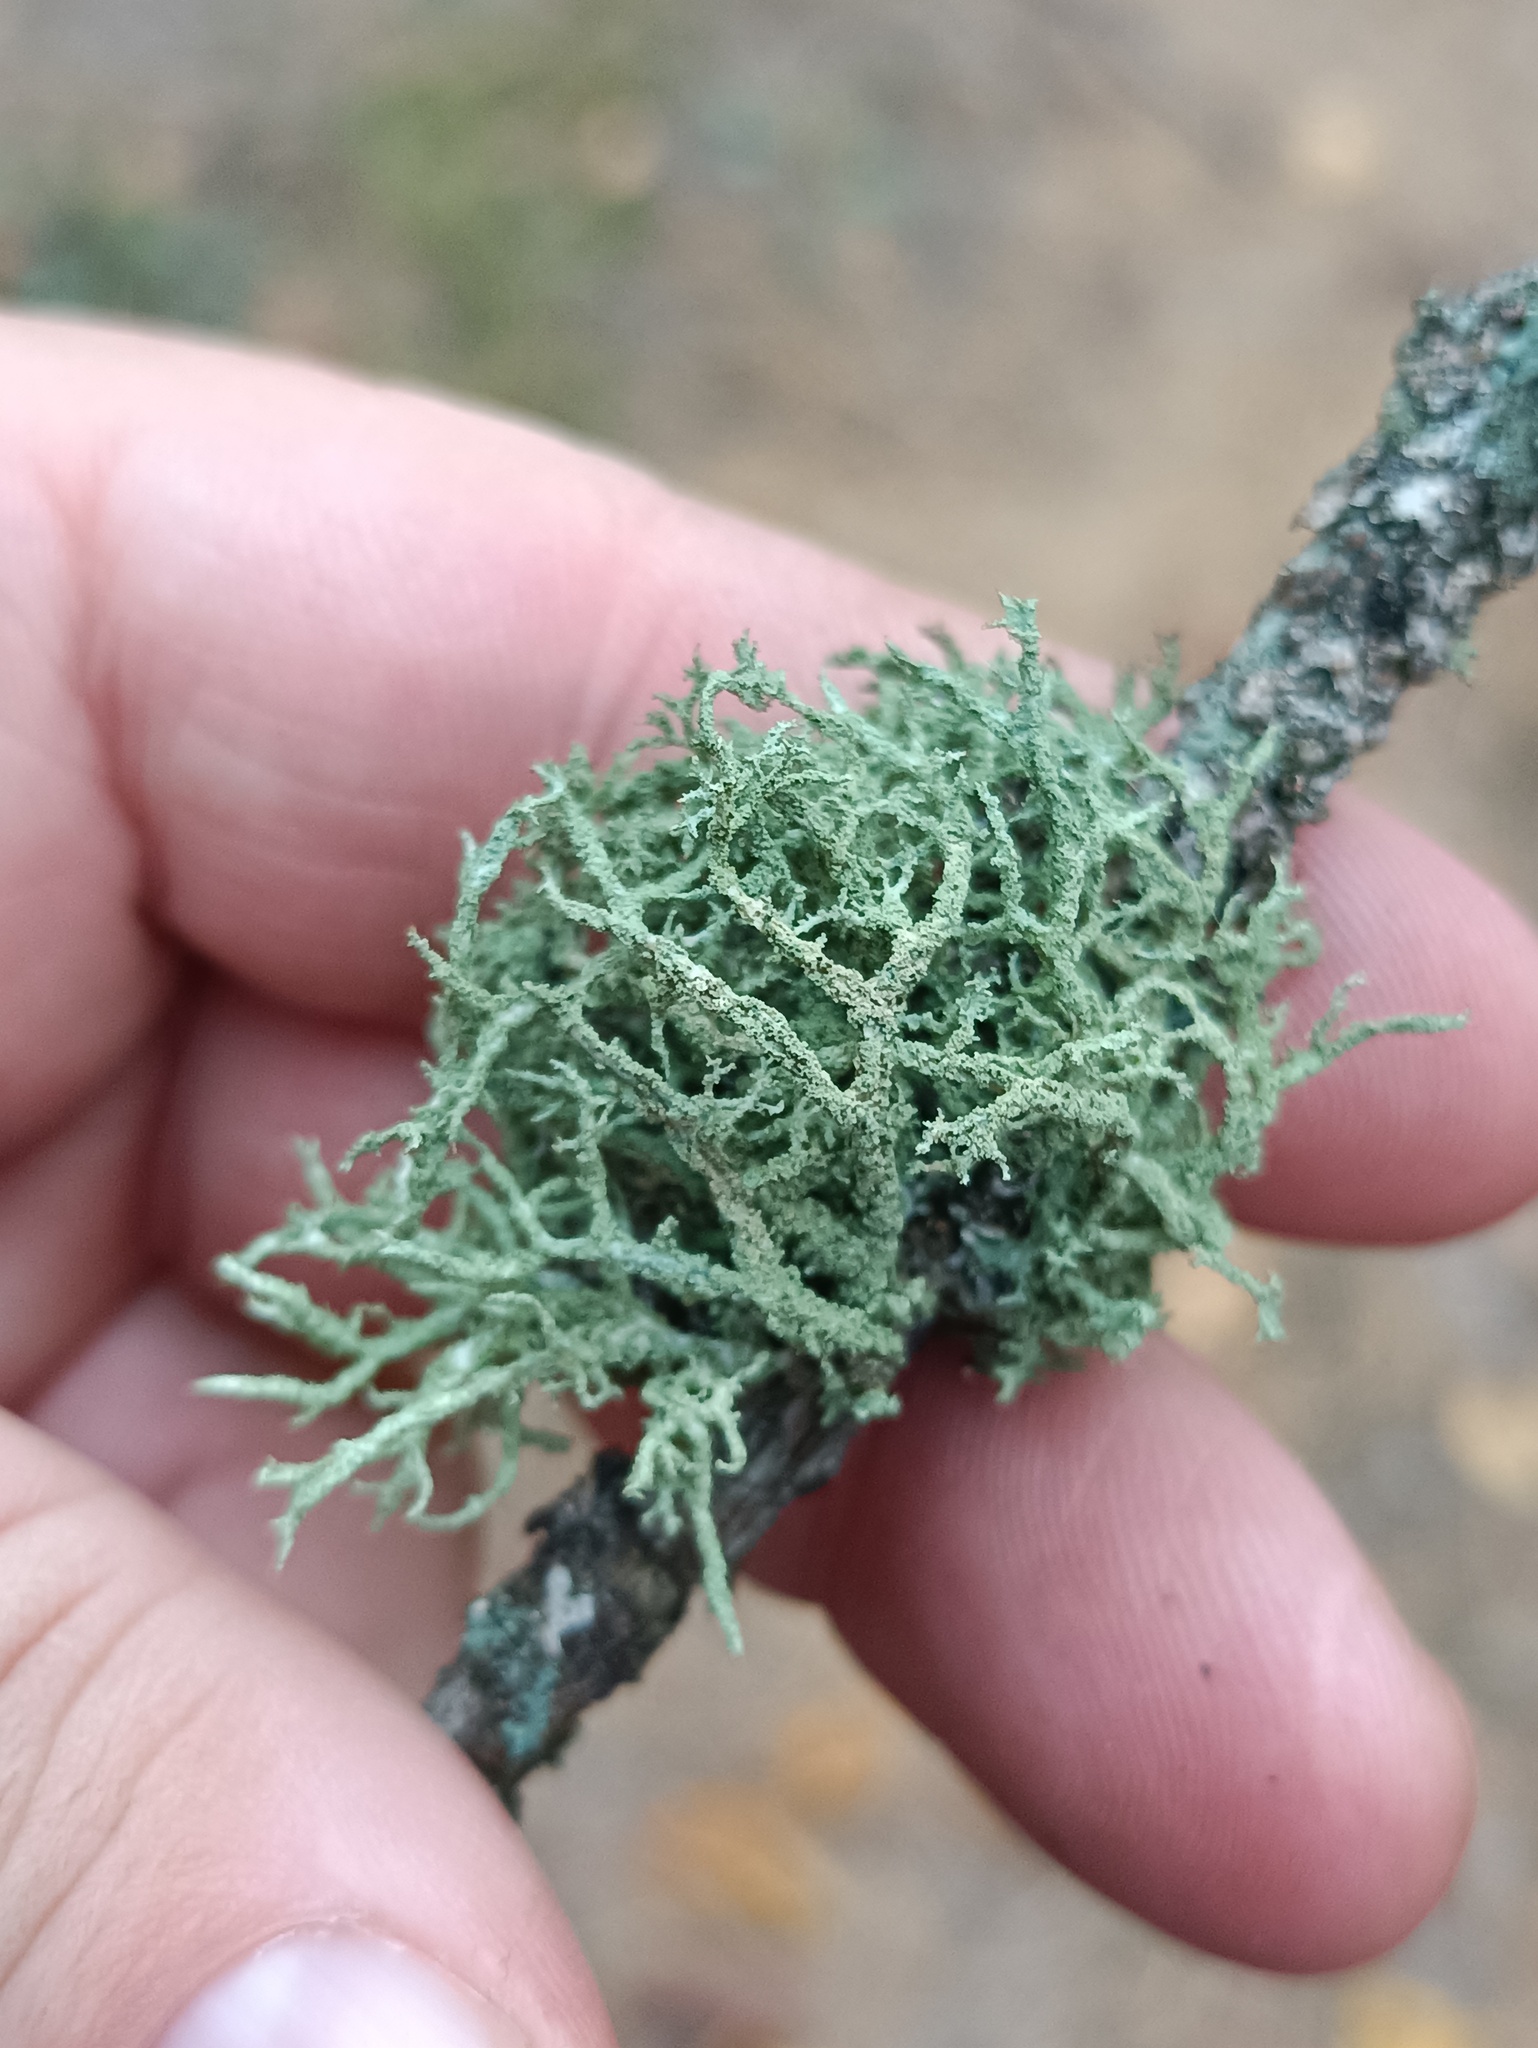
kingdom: Fungi
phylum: Ascomycota
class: Lecanoromycetes
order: Lecanorales
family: Parmeliaceae
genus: Evernia
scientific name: Evernia mesomorpha
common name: Boreal oak moss lichen
